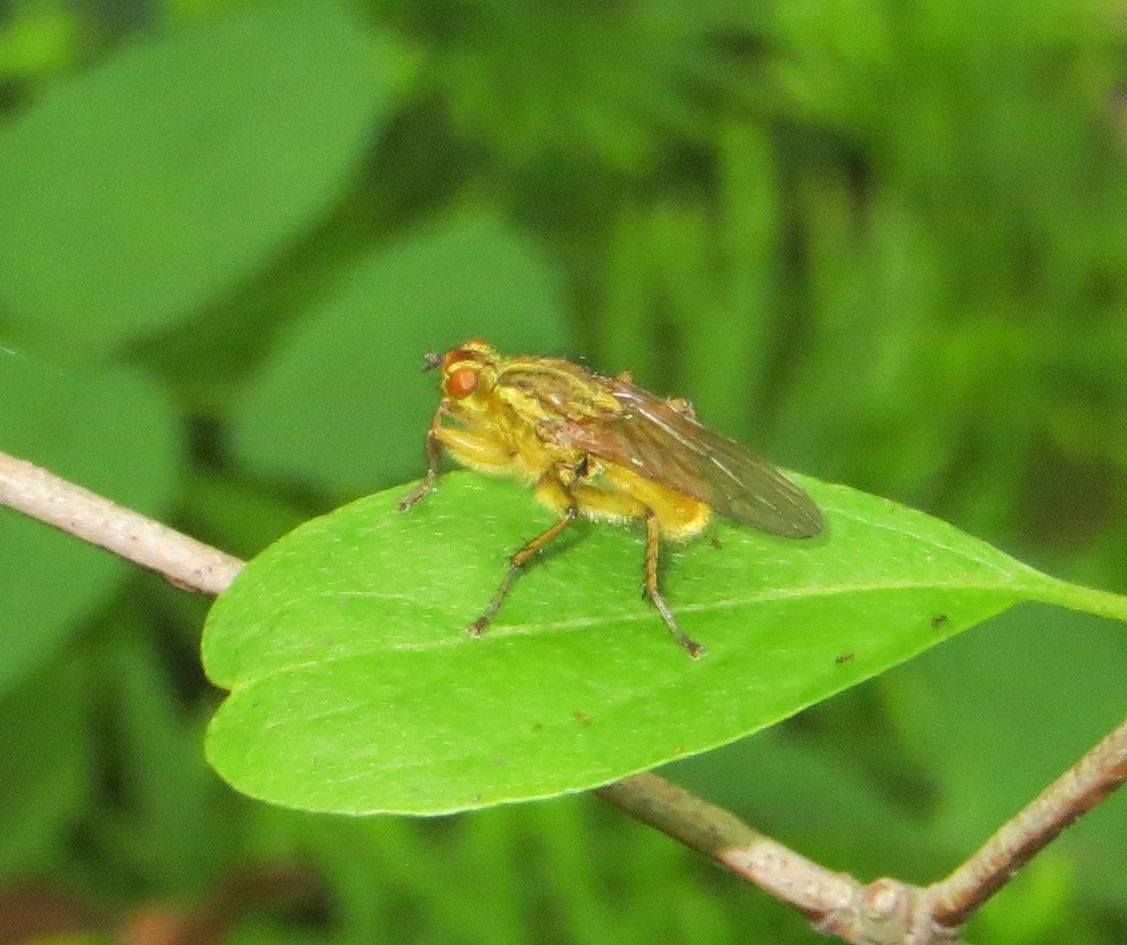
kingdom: Animalia
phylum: Arthropoda
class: Insecta
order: Diptera
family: Scathophagidae
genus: Scathophaga
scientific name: Scathophaga stercoraria
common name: Yellow dung fly
